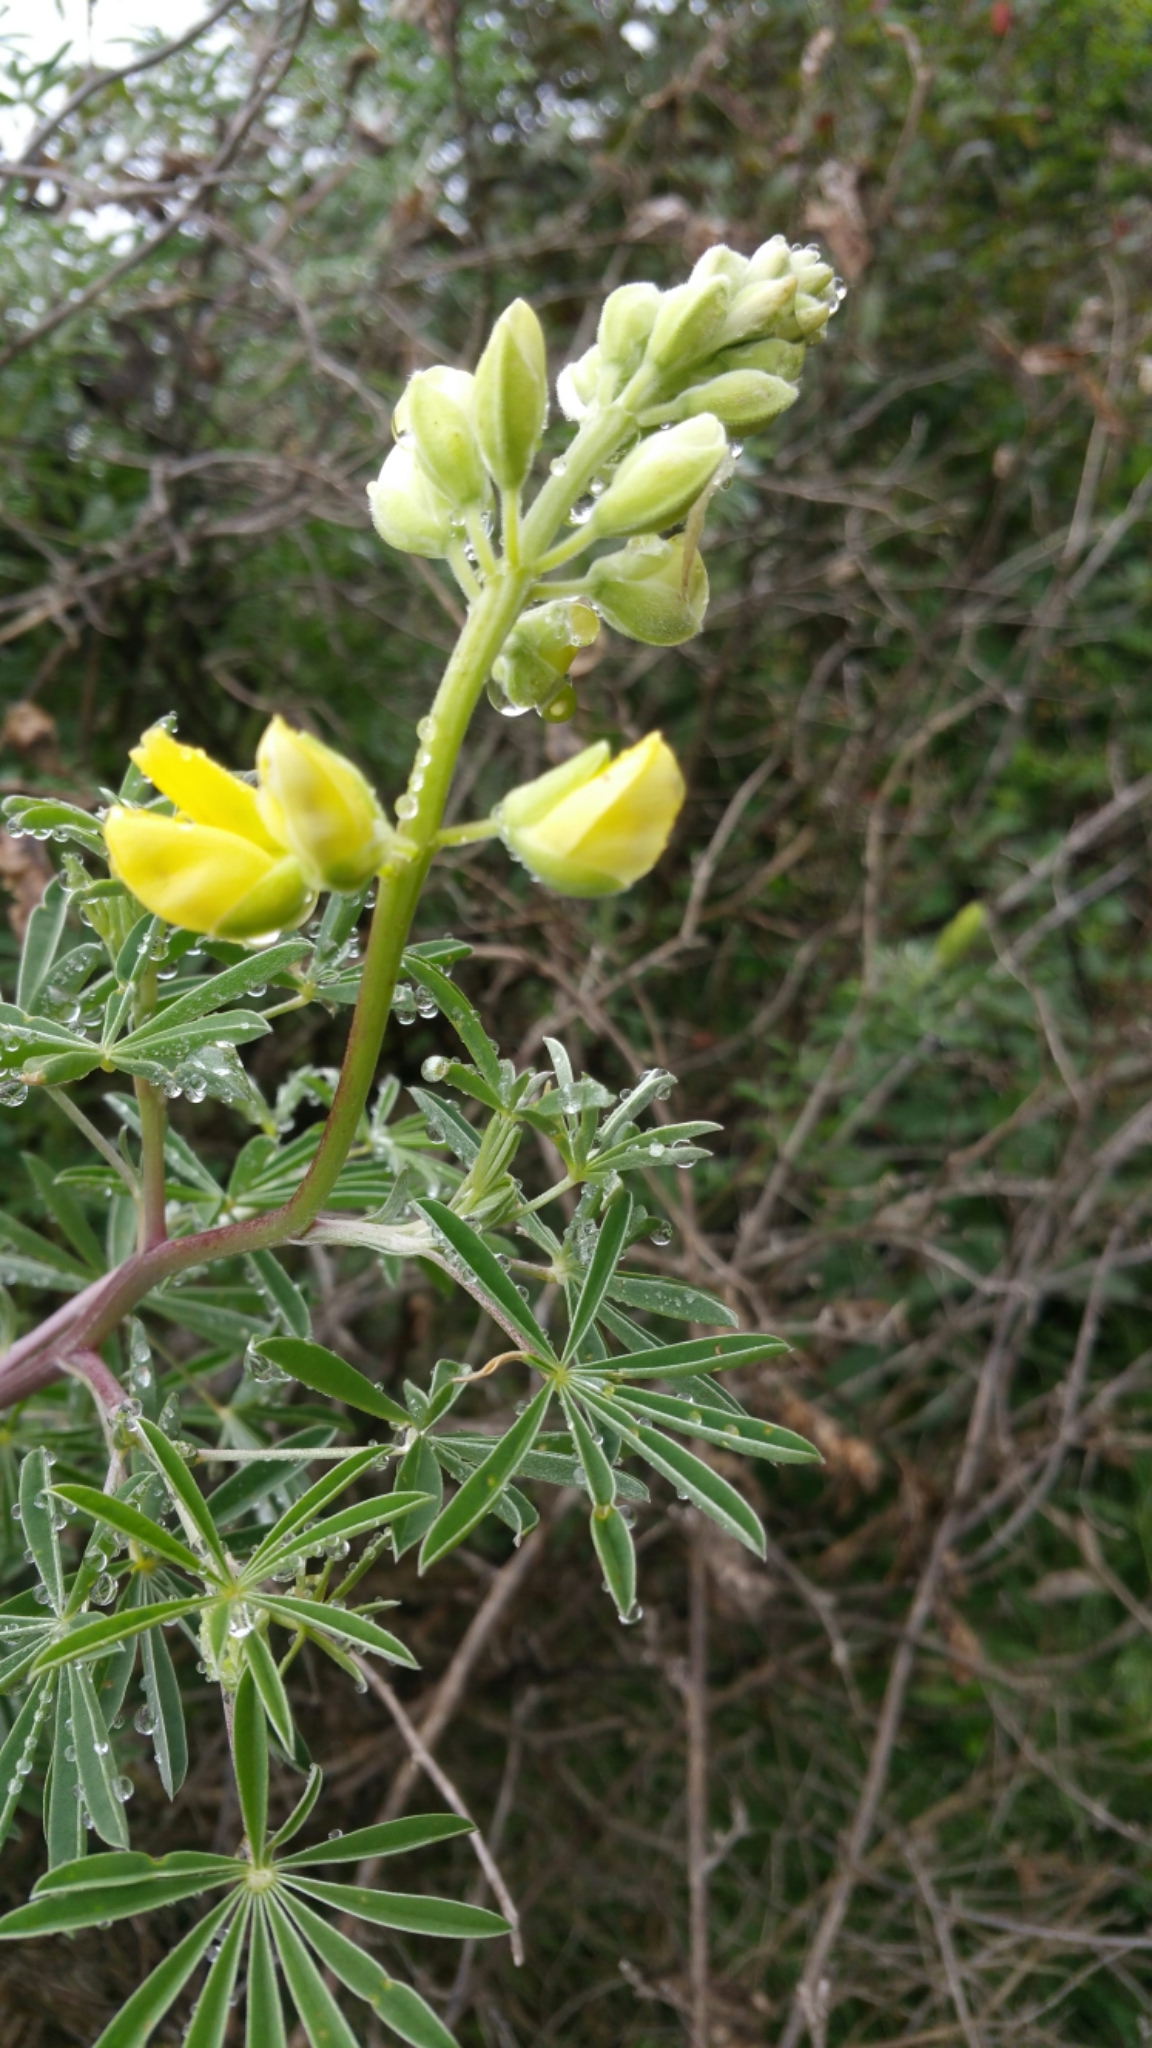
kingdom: Plantae
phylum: Tracheophyta
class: Magnoliopsida
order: Fabales
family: Fabaceae
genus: Lupinus
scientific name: Lupinus arboreus
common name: Yellow bush lupine
